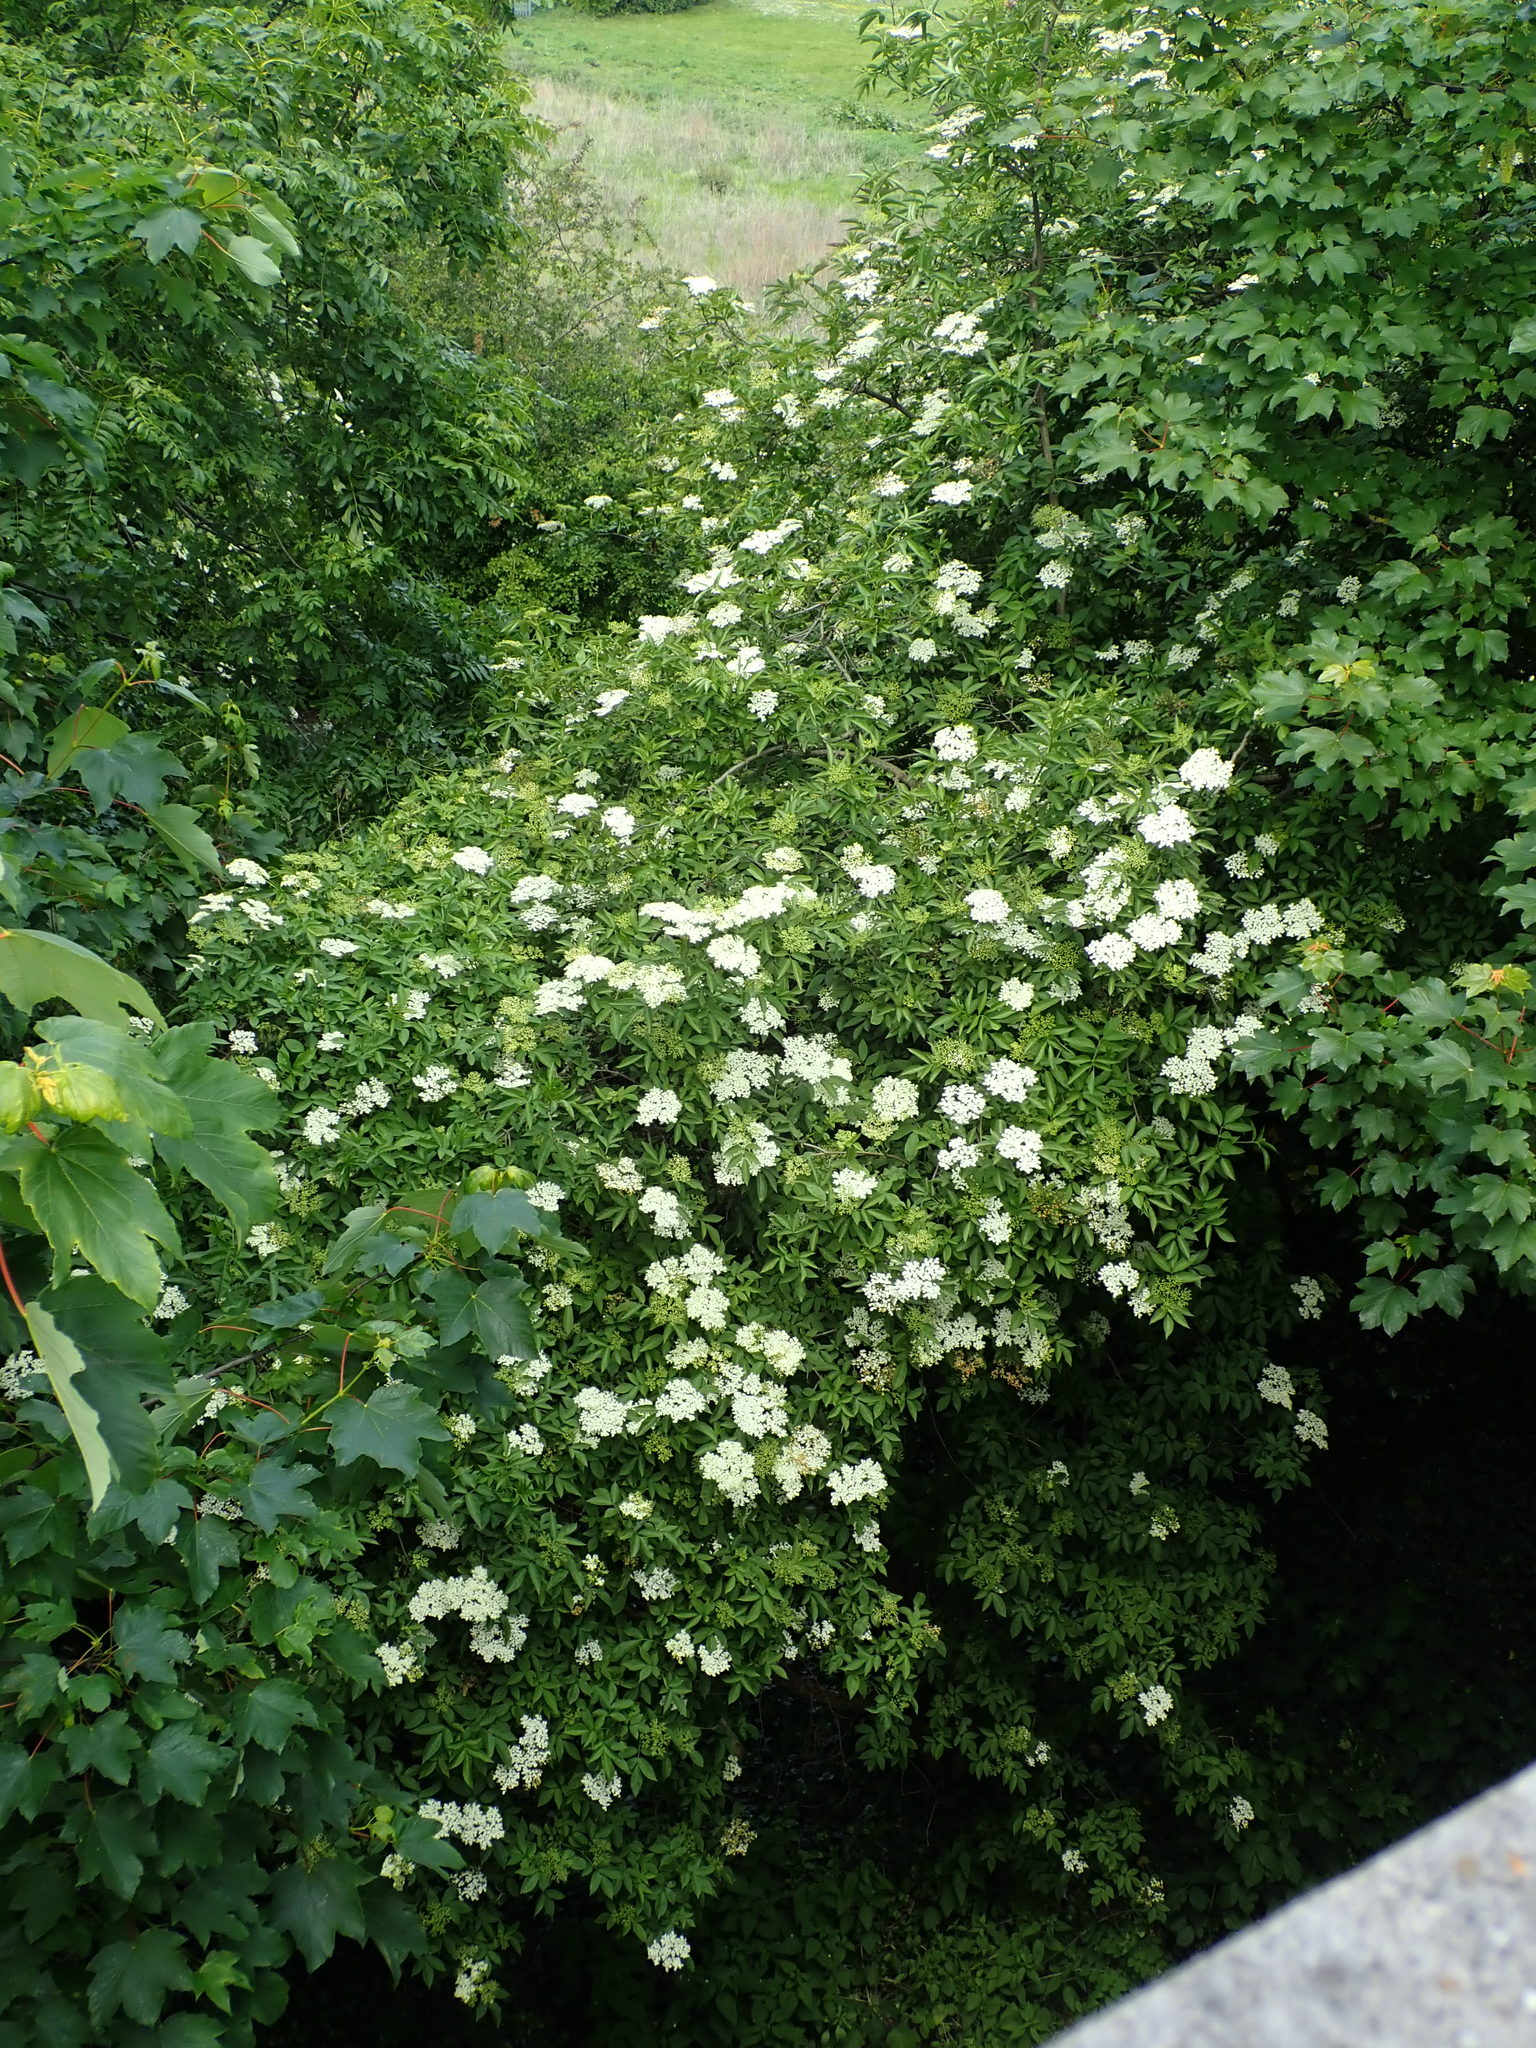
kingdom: Plantae
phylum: Tracheophyta
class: Magnoliopsida
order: Dipsacales
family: Viburnaceae
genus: Sambucus
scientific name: Sambucus nigra
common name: Elder
